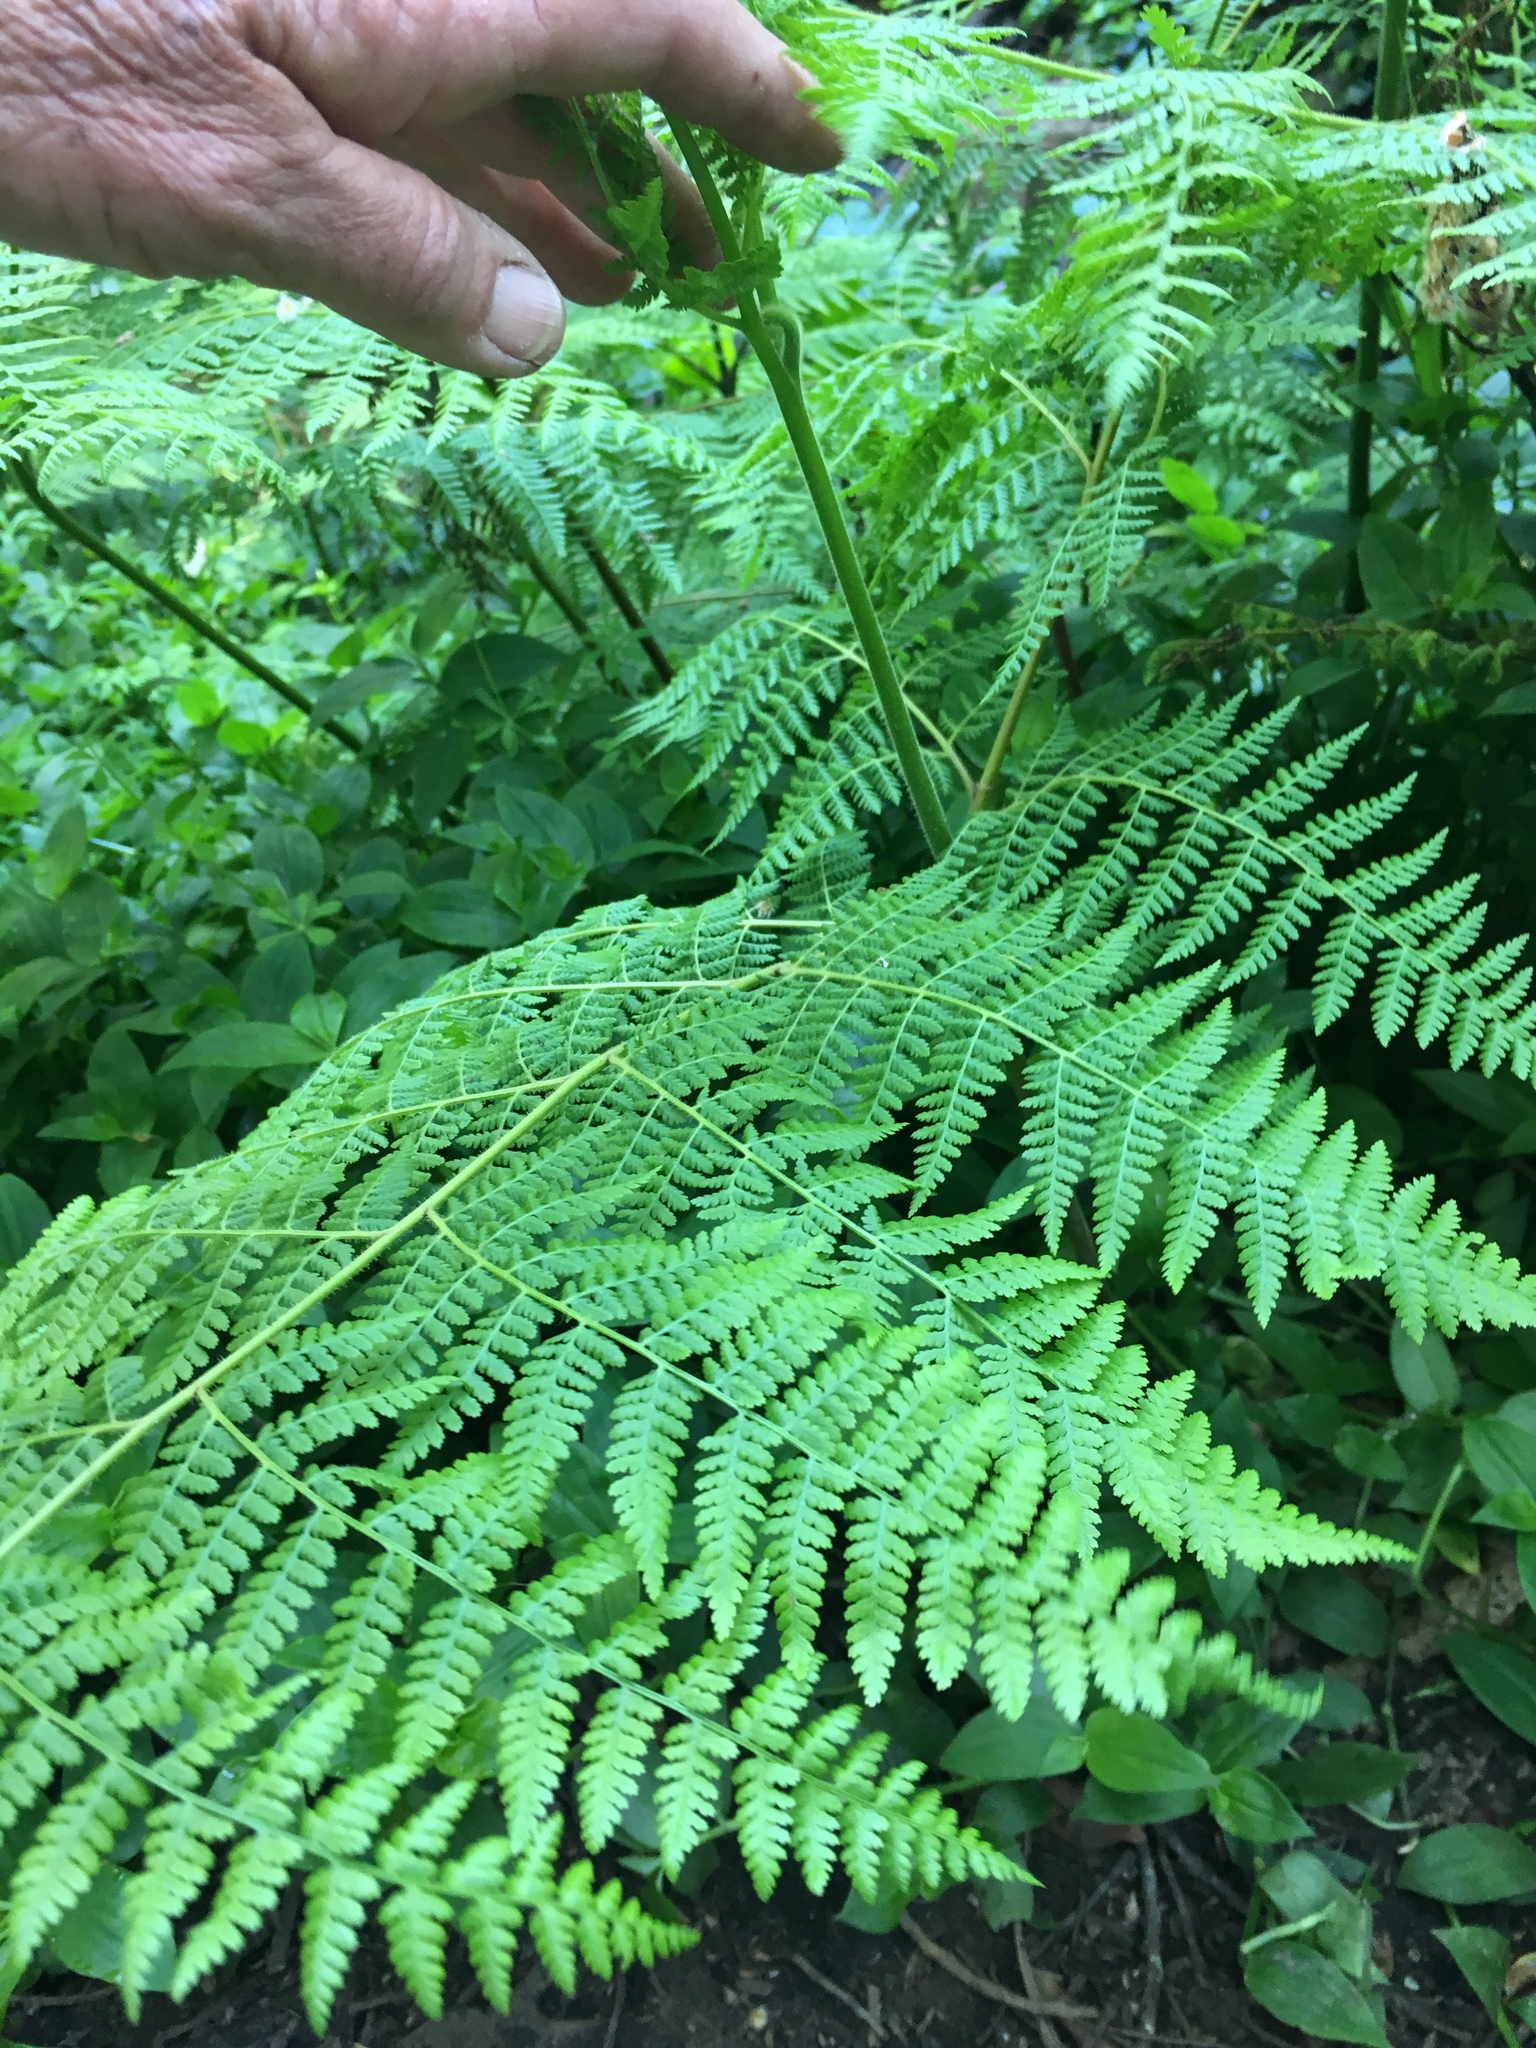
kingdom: Plantae
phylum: Tracheophyta
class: Polypodiopsida
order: Polypodiales
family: Dennstaedtiaceae
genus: Hypolepis
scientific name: Hypolepis sparsisora
